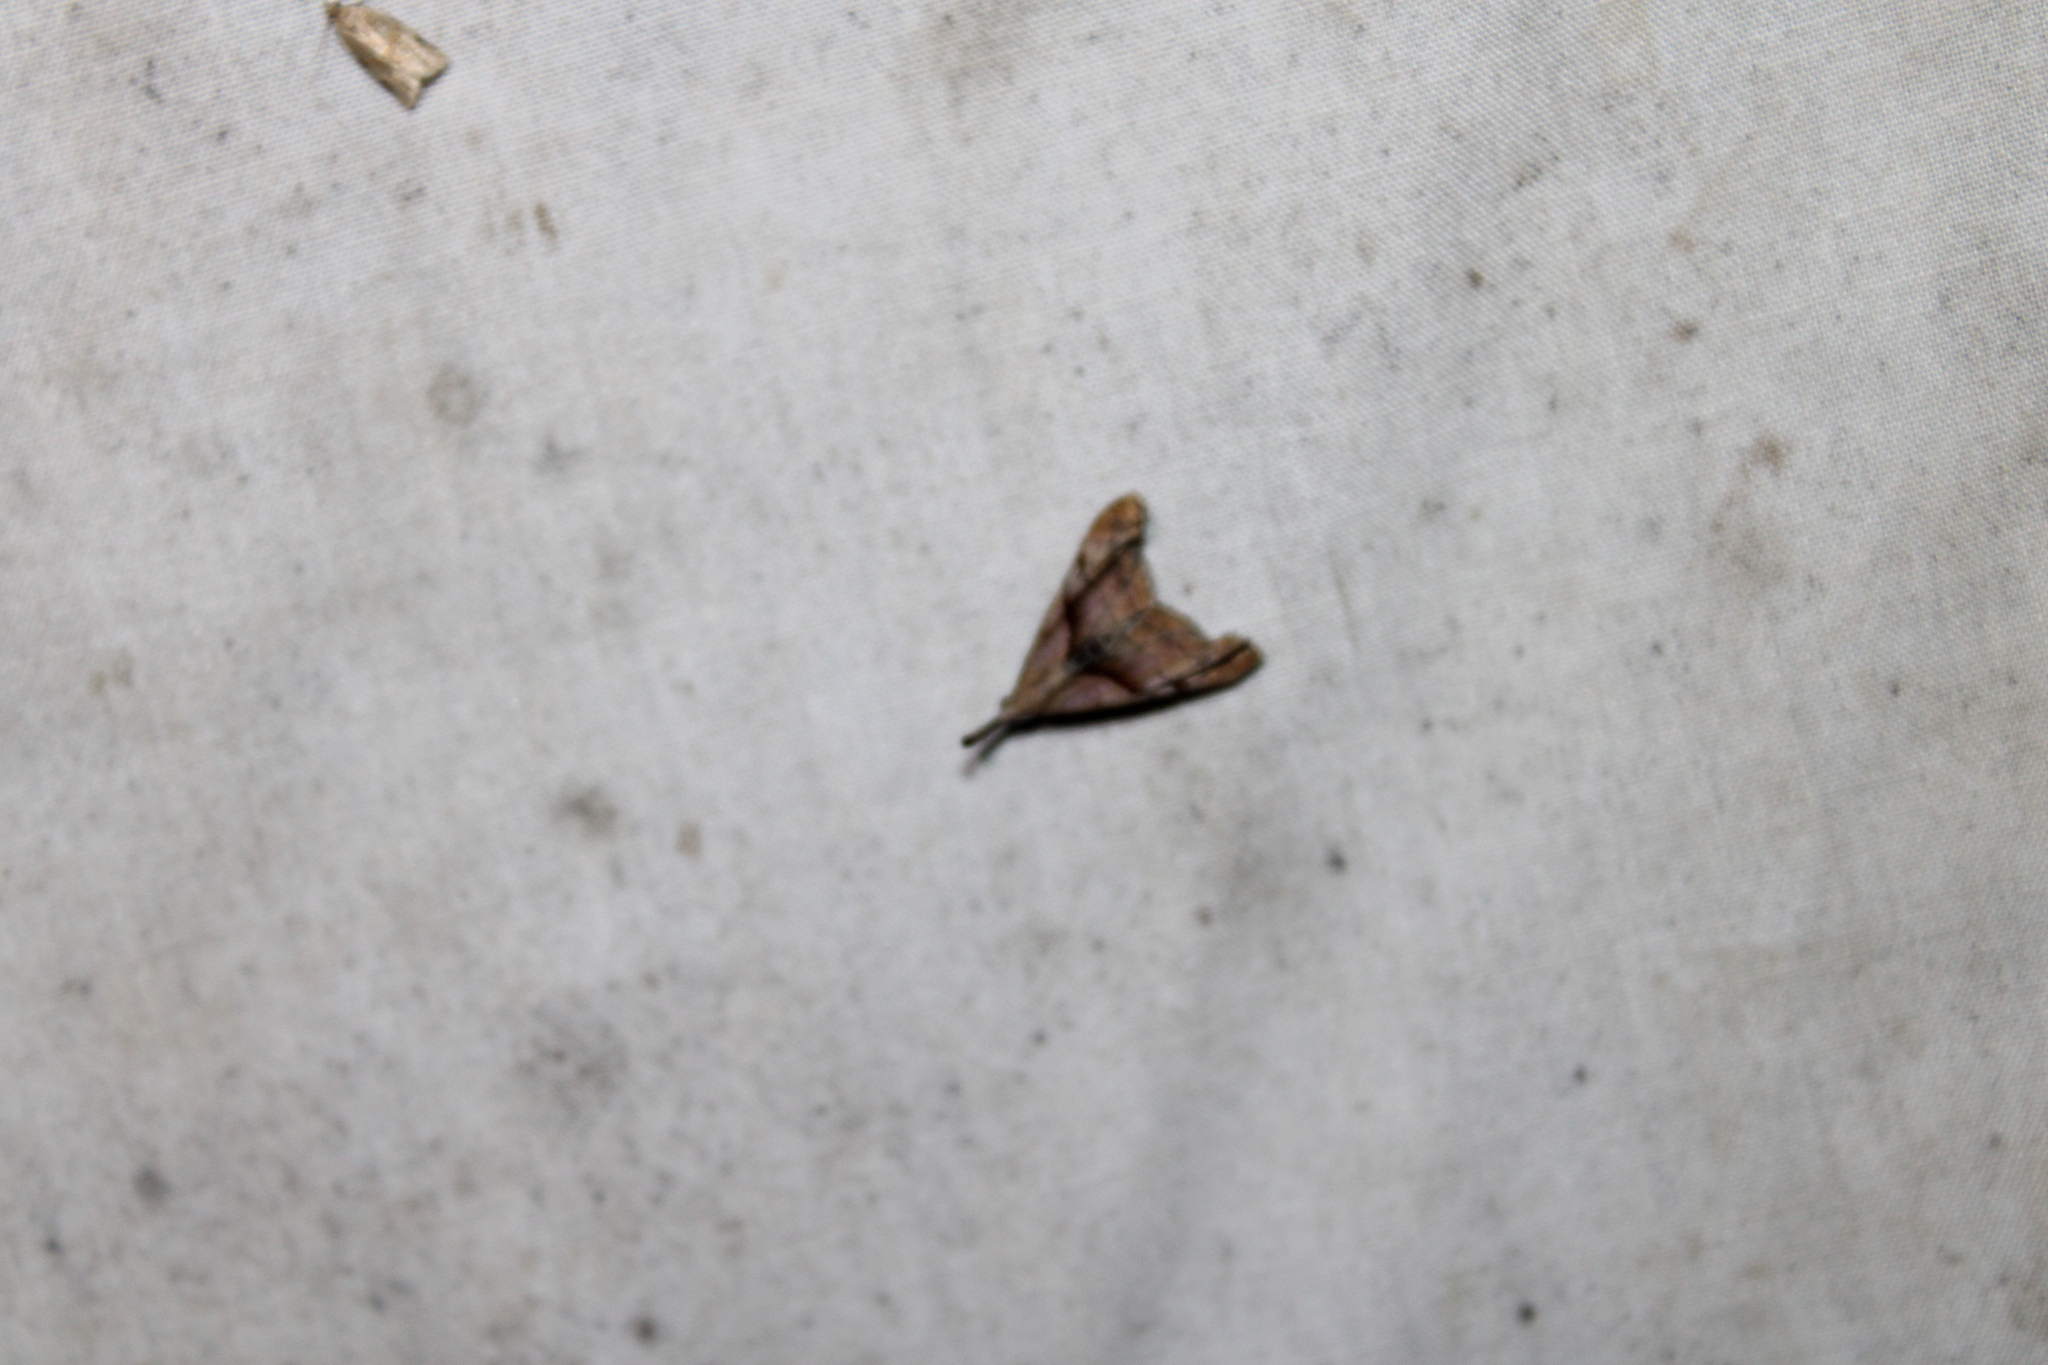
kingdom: Animalia
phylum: Arthropoda
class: Insecta
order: Lepidoptera
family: Erebidae
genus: Palthis
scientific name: Palthis angulalis
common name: Dark-spotted palthis moth
